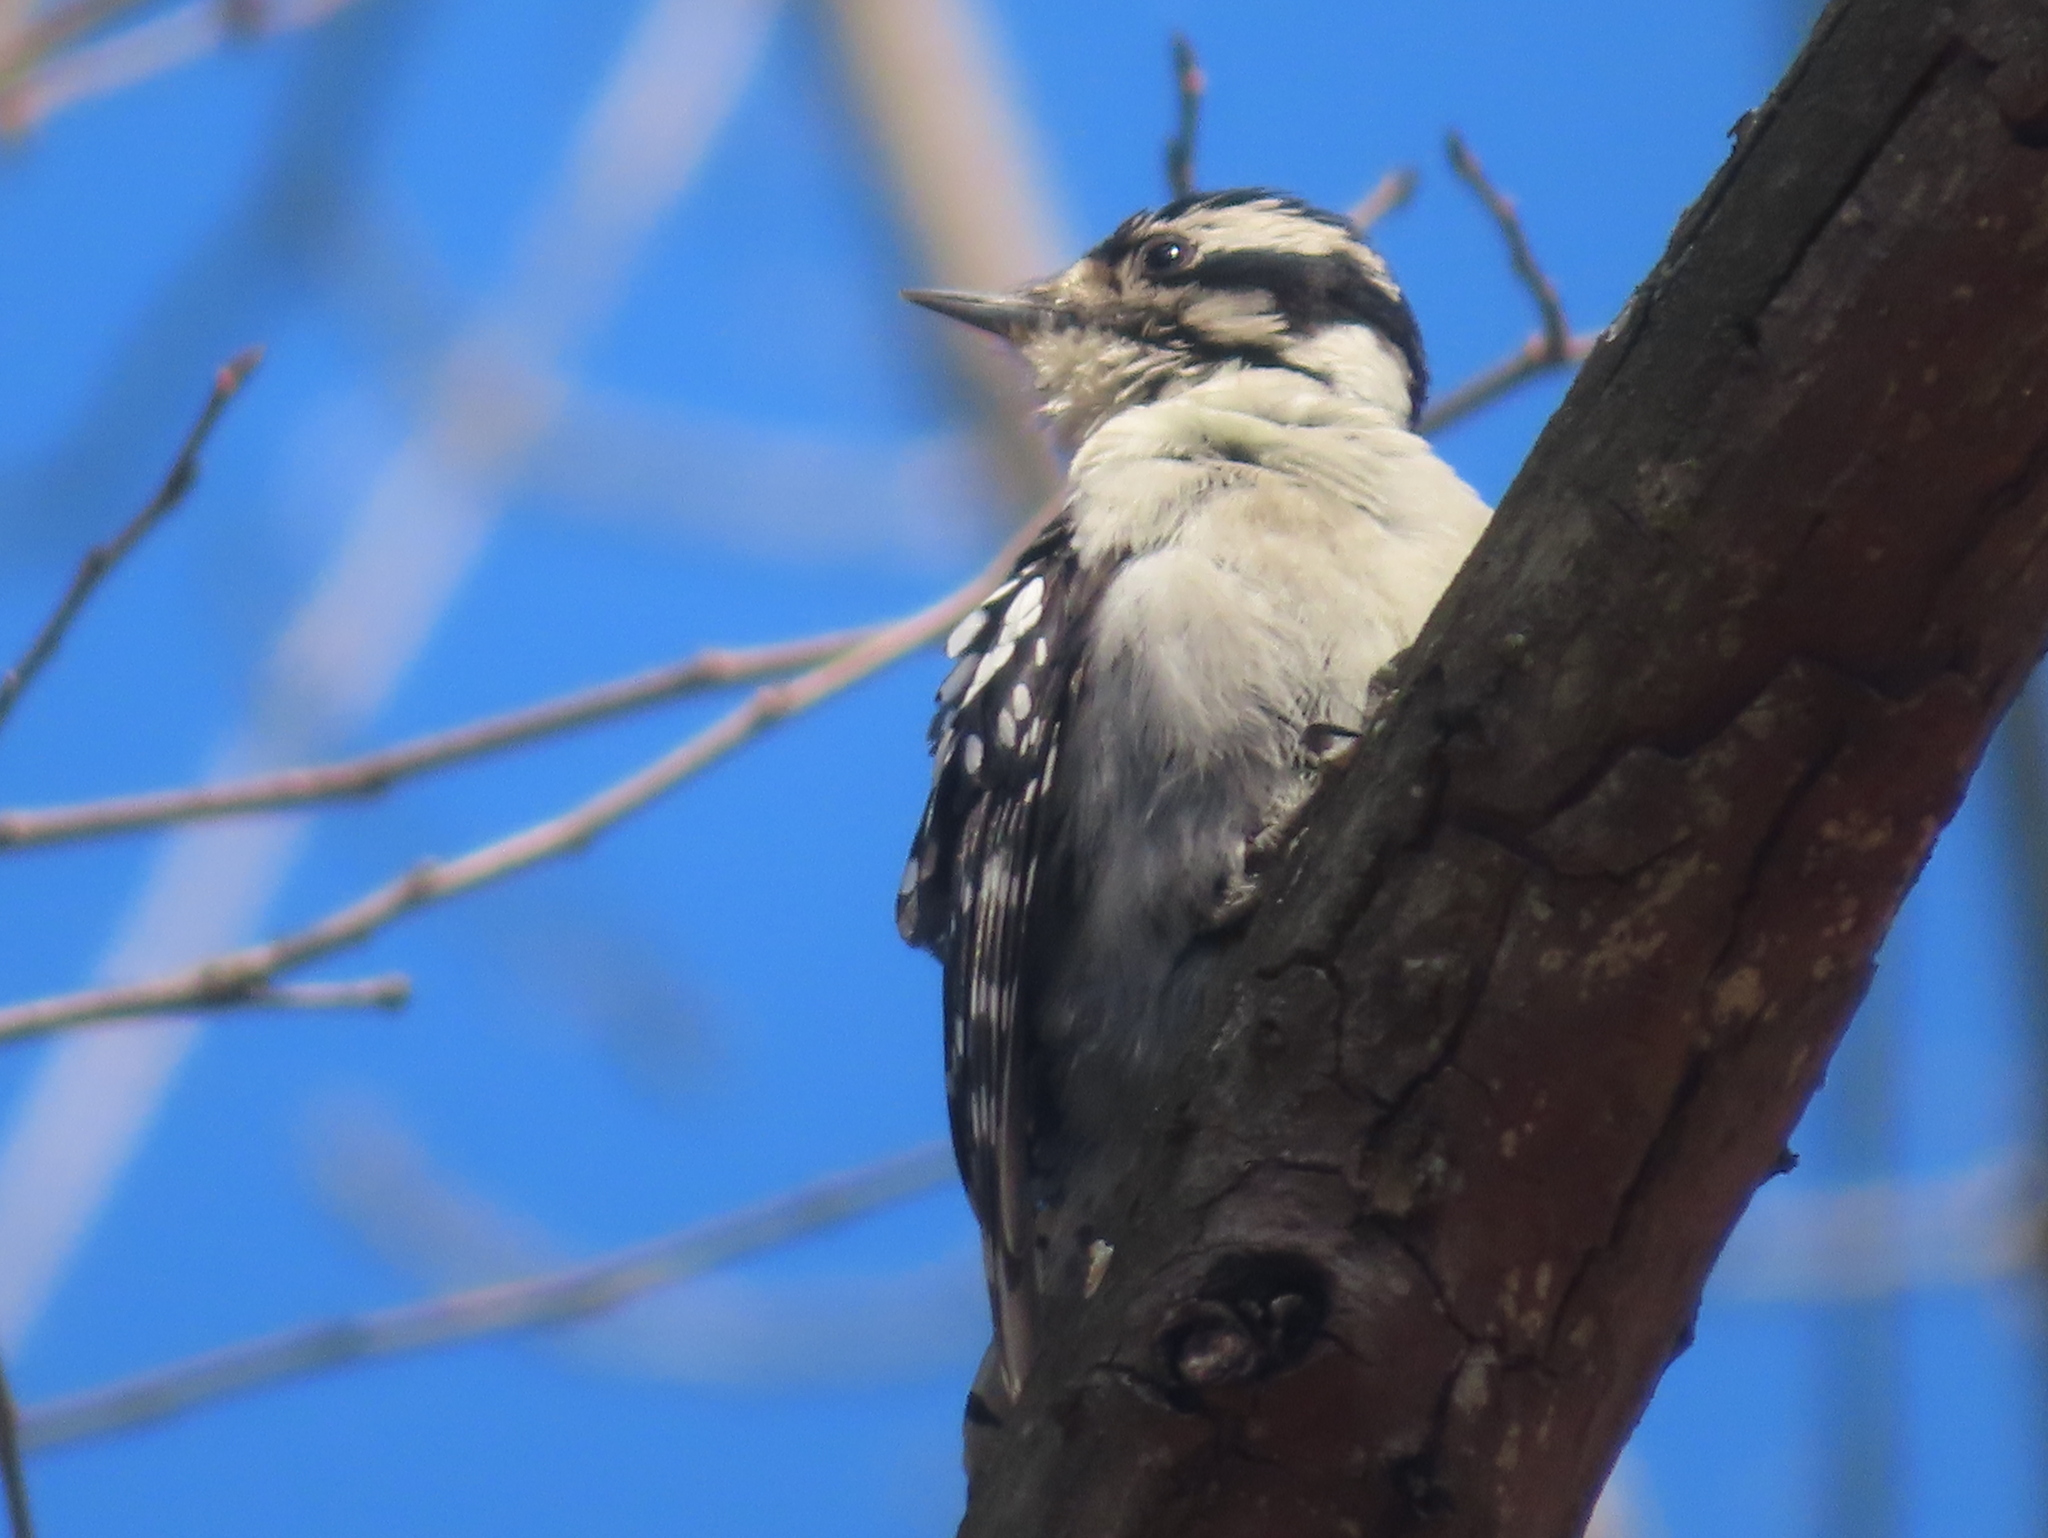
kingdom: Animalia
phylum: Chordata
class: Aves
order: Piciformes
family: Picidae
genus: Dryobates
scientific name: Dryobates pubescens
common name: Downy woodpecker
